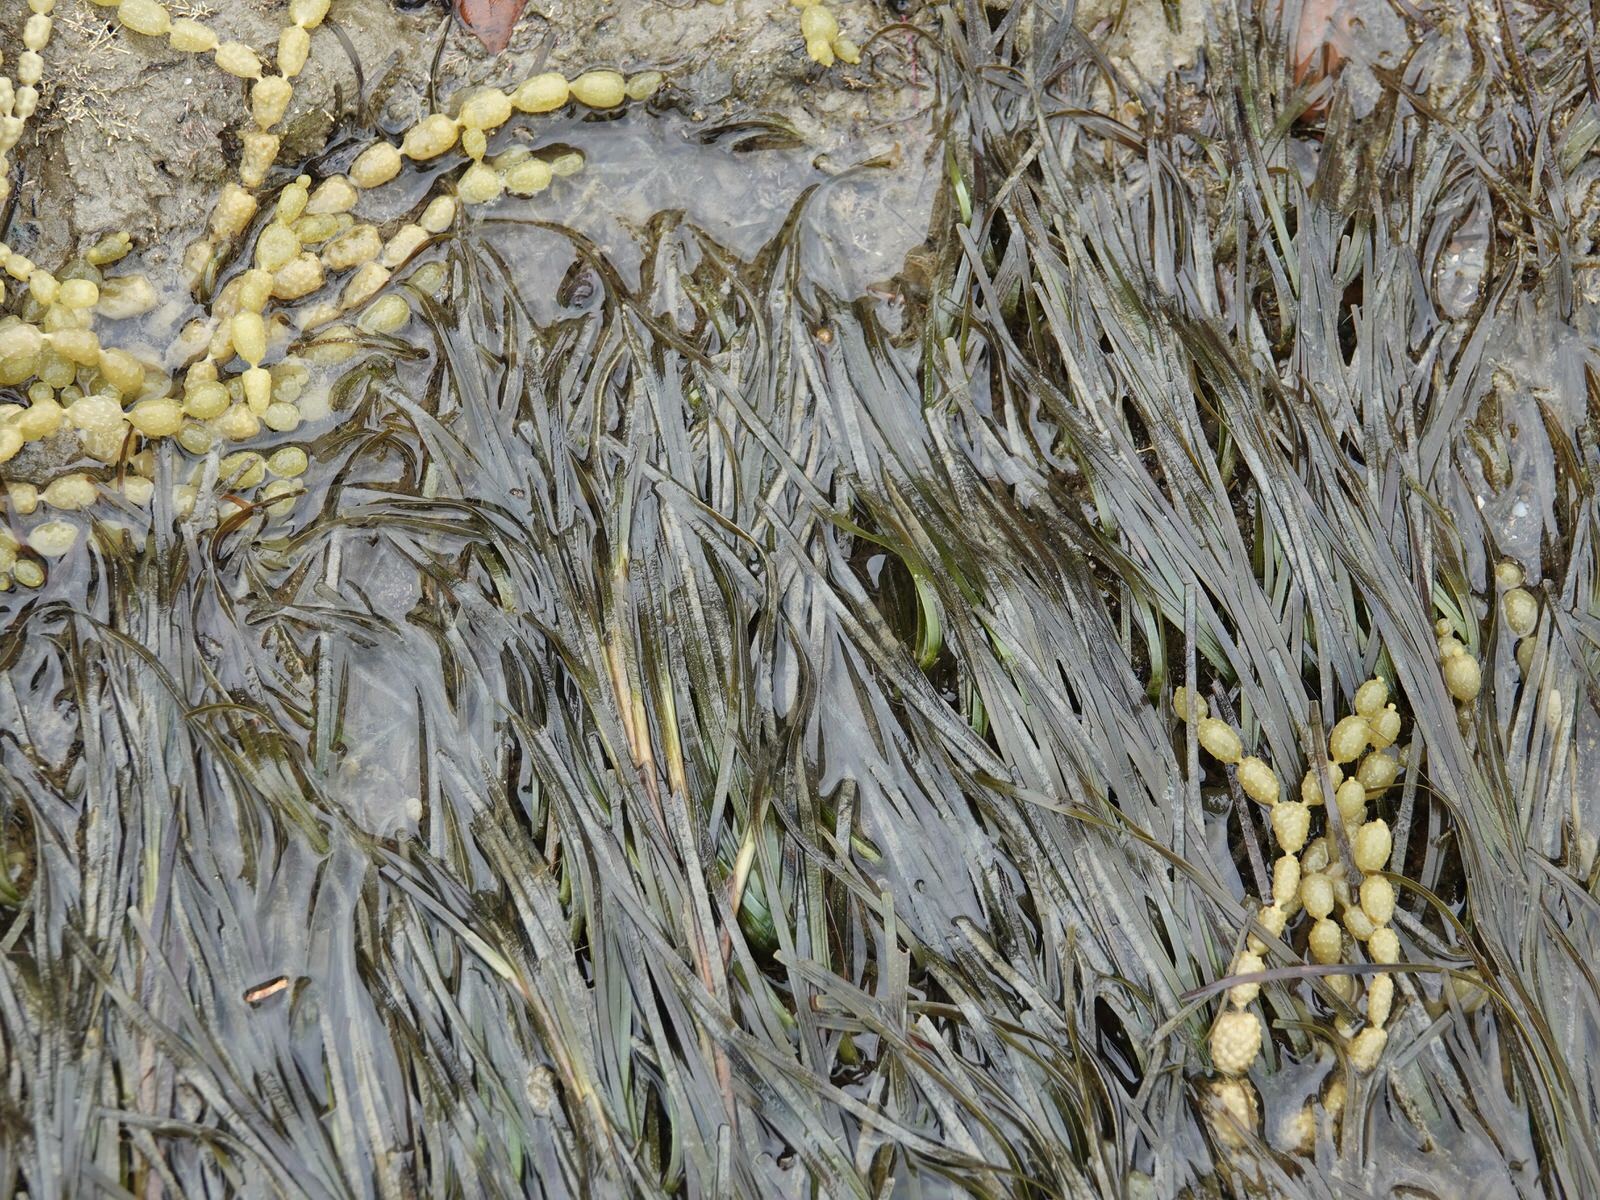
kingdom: Plantae
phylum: Tracheophyta
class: Liliopsida
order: Alismatales
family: Zosteraceae
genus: Zostera
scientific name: Zostera novazelandica
